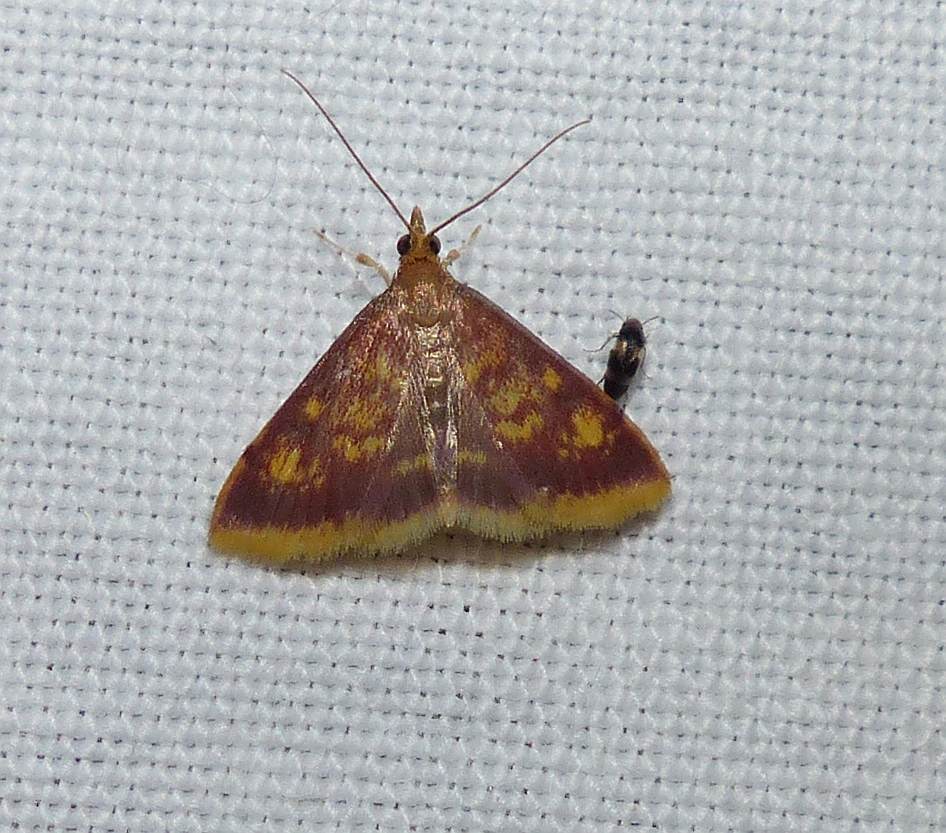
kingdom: Animalia
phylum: Arthropoda
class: Insecta
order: Lepidoptera
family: Crambidae
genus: Pyrausta
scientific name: Pyrausta acrionalis
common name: Mint-loving pyrausta moth
